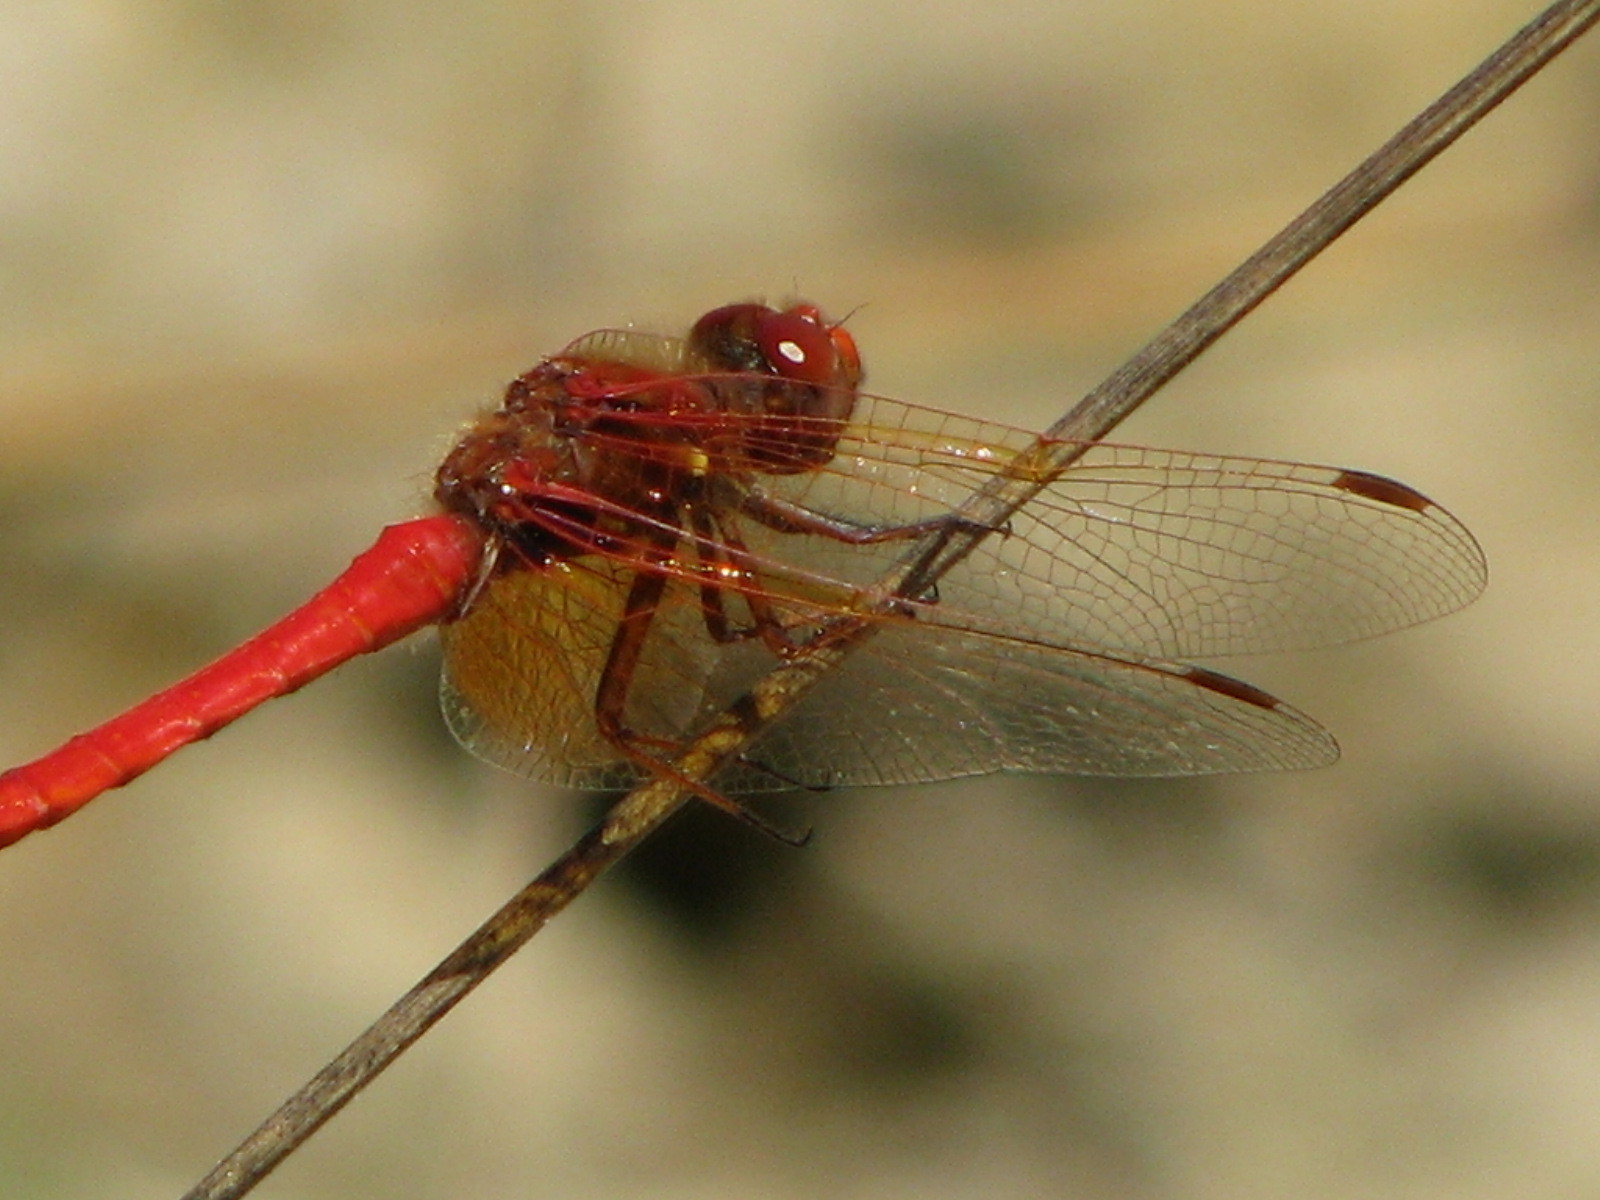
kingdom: Animalia
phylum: Arthropoda
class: Insecta
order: Odonata
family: Libellulidae
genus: Sympetrum
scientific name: Sympetrum illotum
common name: Cardinal meadowhawk
